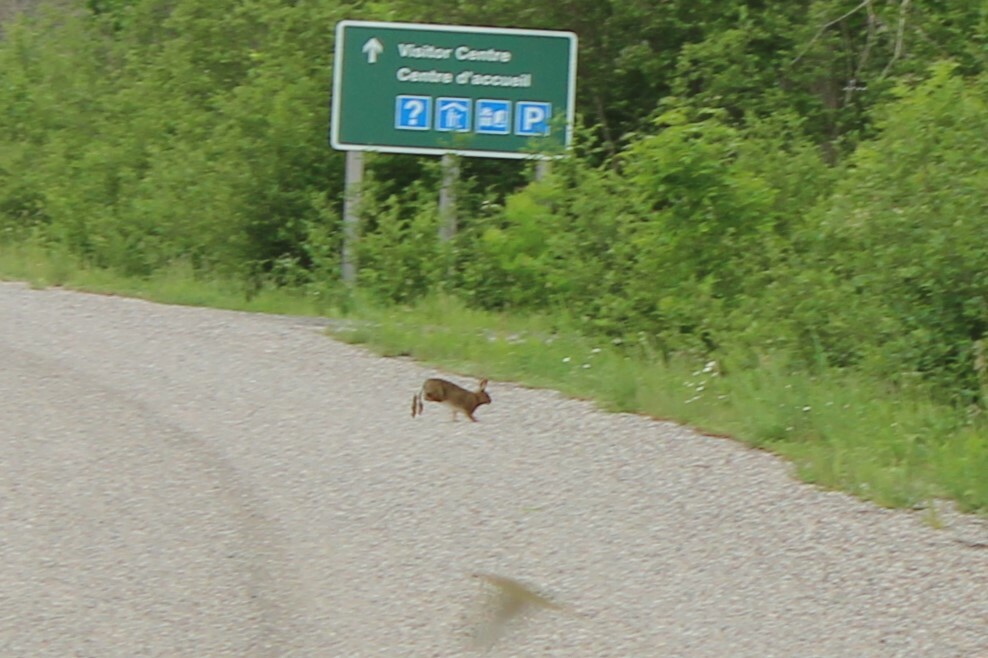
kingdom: Animalia
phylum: Chordata
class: Mammalia
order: Lagomorpha
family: Leporidae
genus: Lepus
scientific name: Lepus americanus
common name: Snowshoe hare
